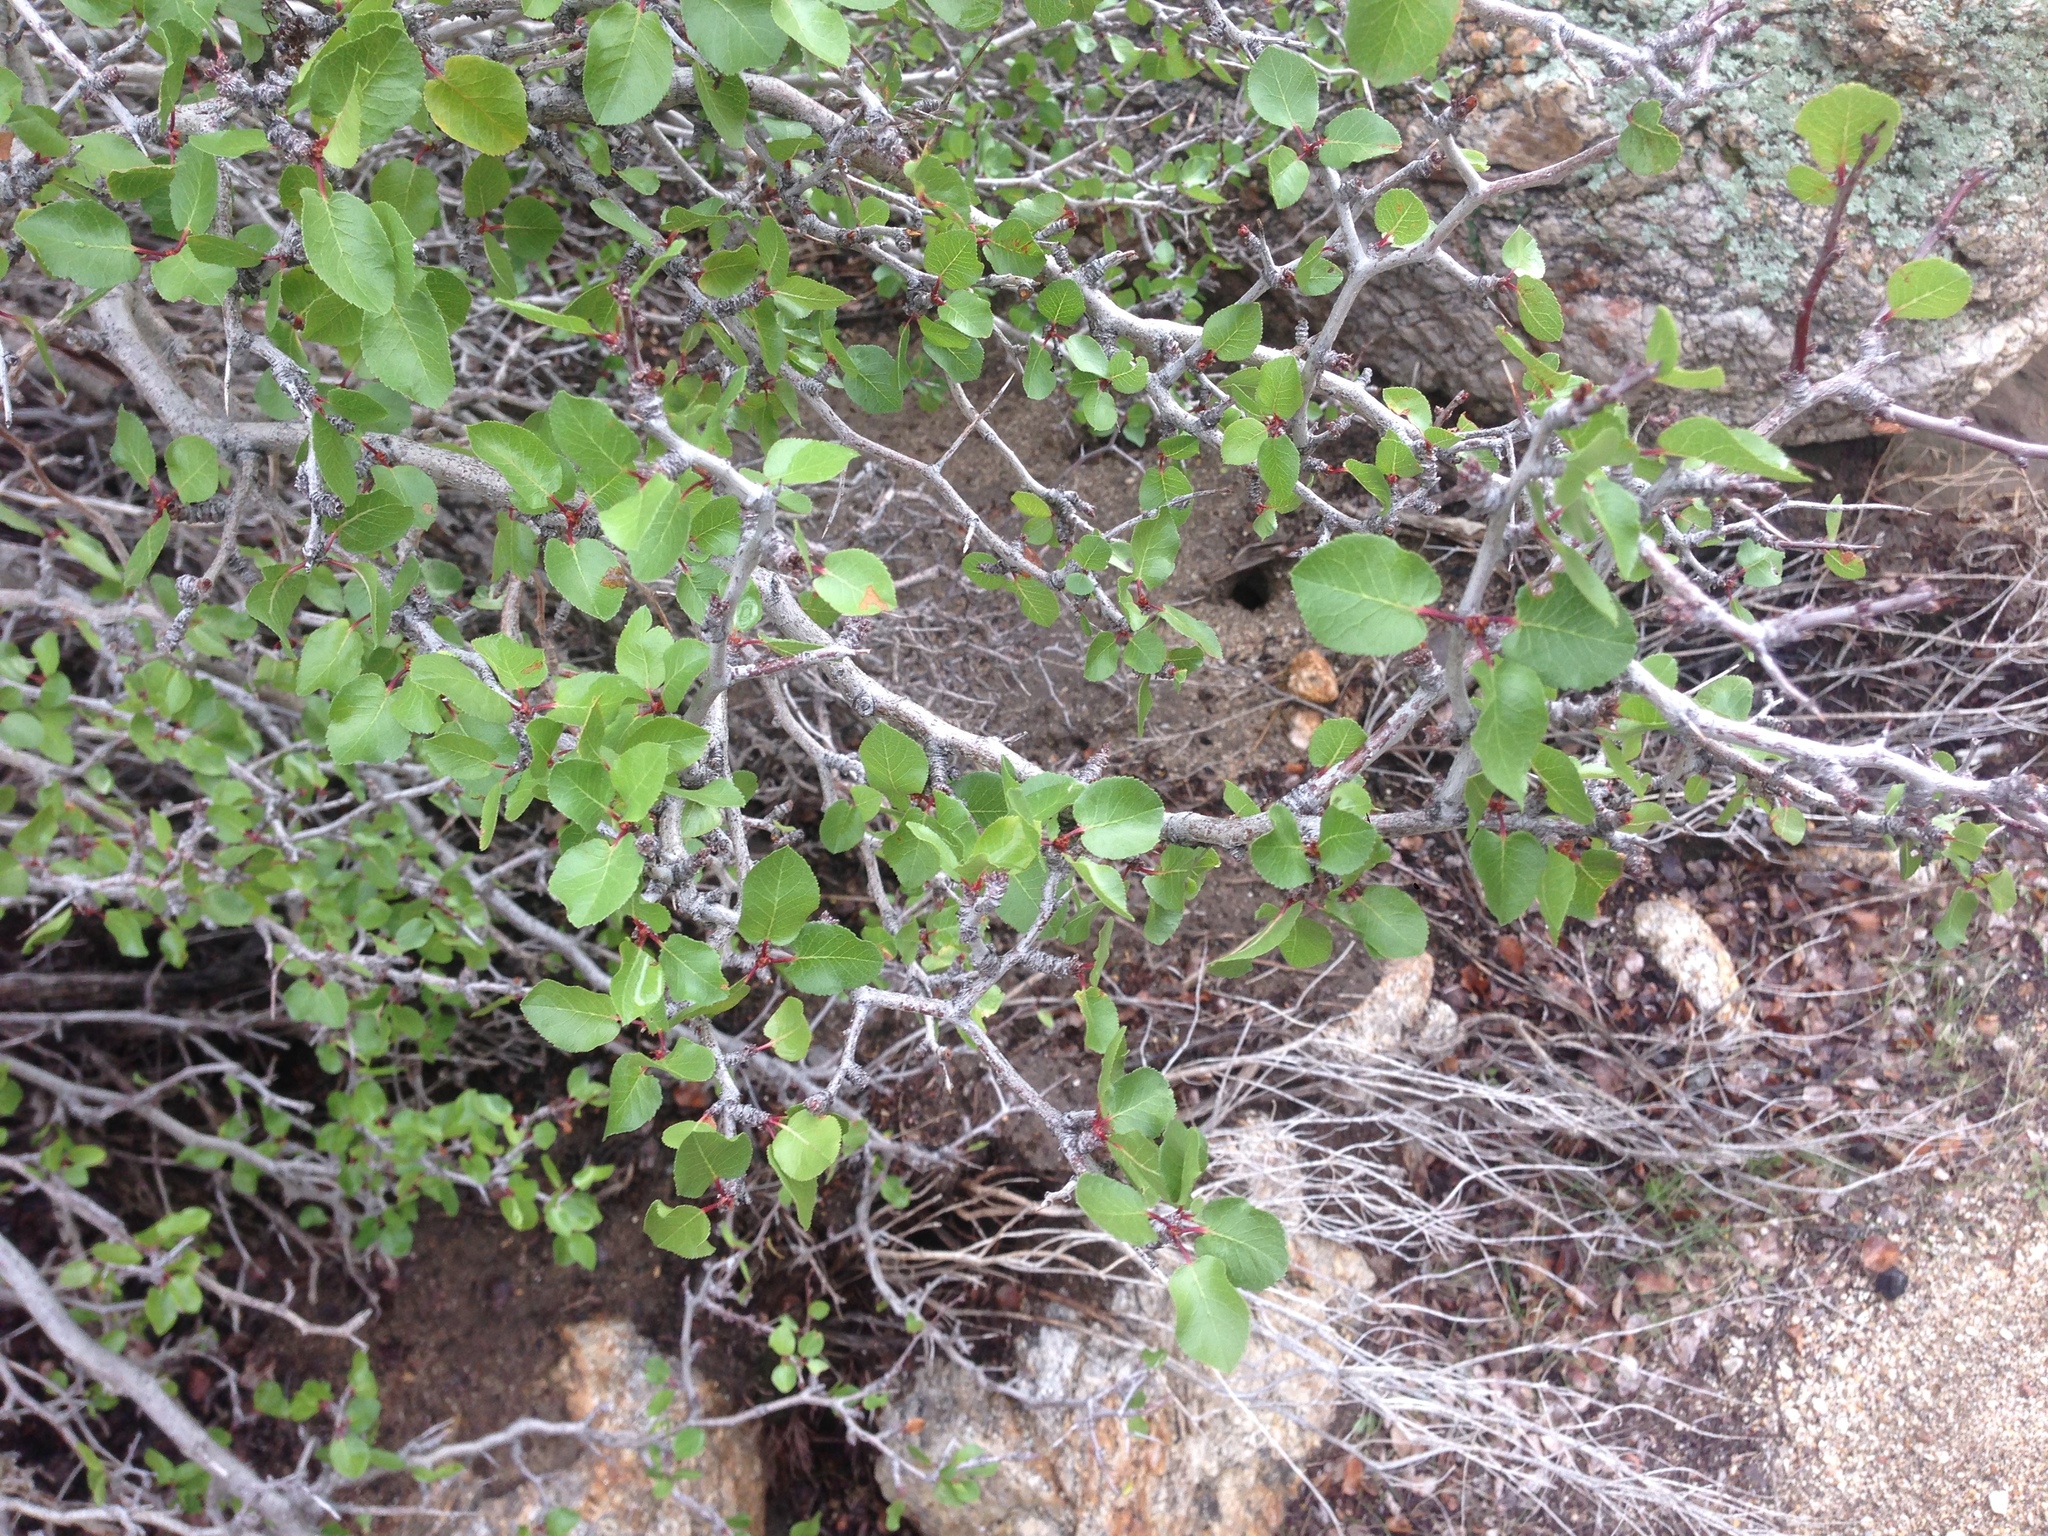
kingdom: Plantae
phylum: Tracheophyta
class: Magnoliopsida
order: Rosales
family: Rosaceae
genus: Prunus
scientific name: Prunus fremontii
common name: Desert apricot
